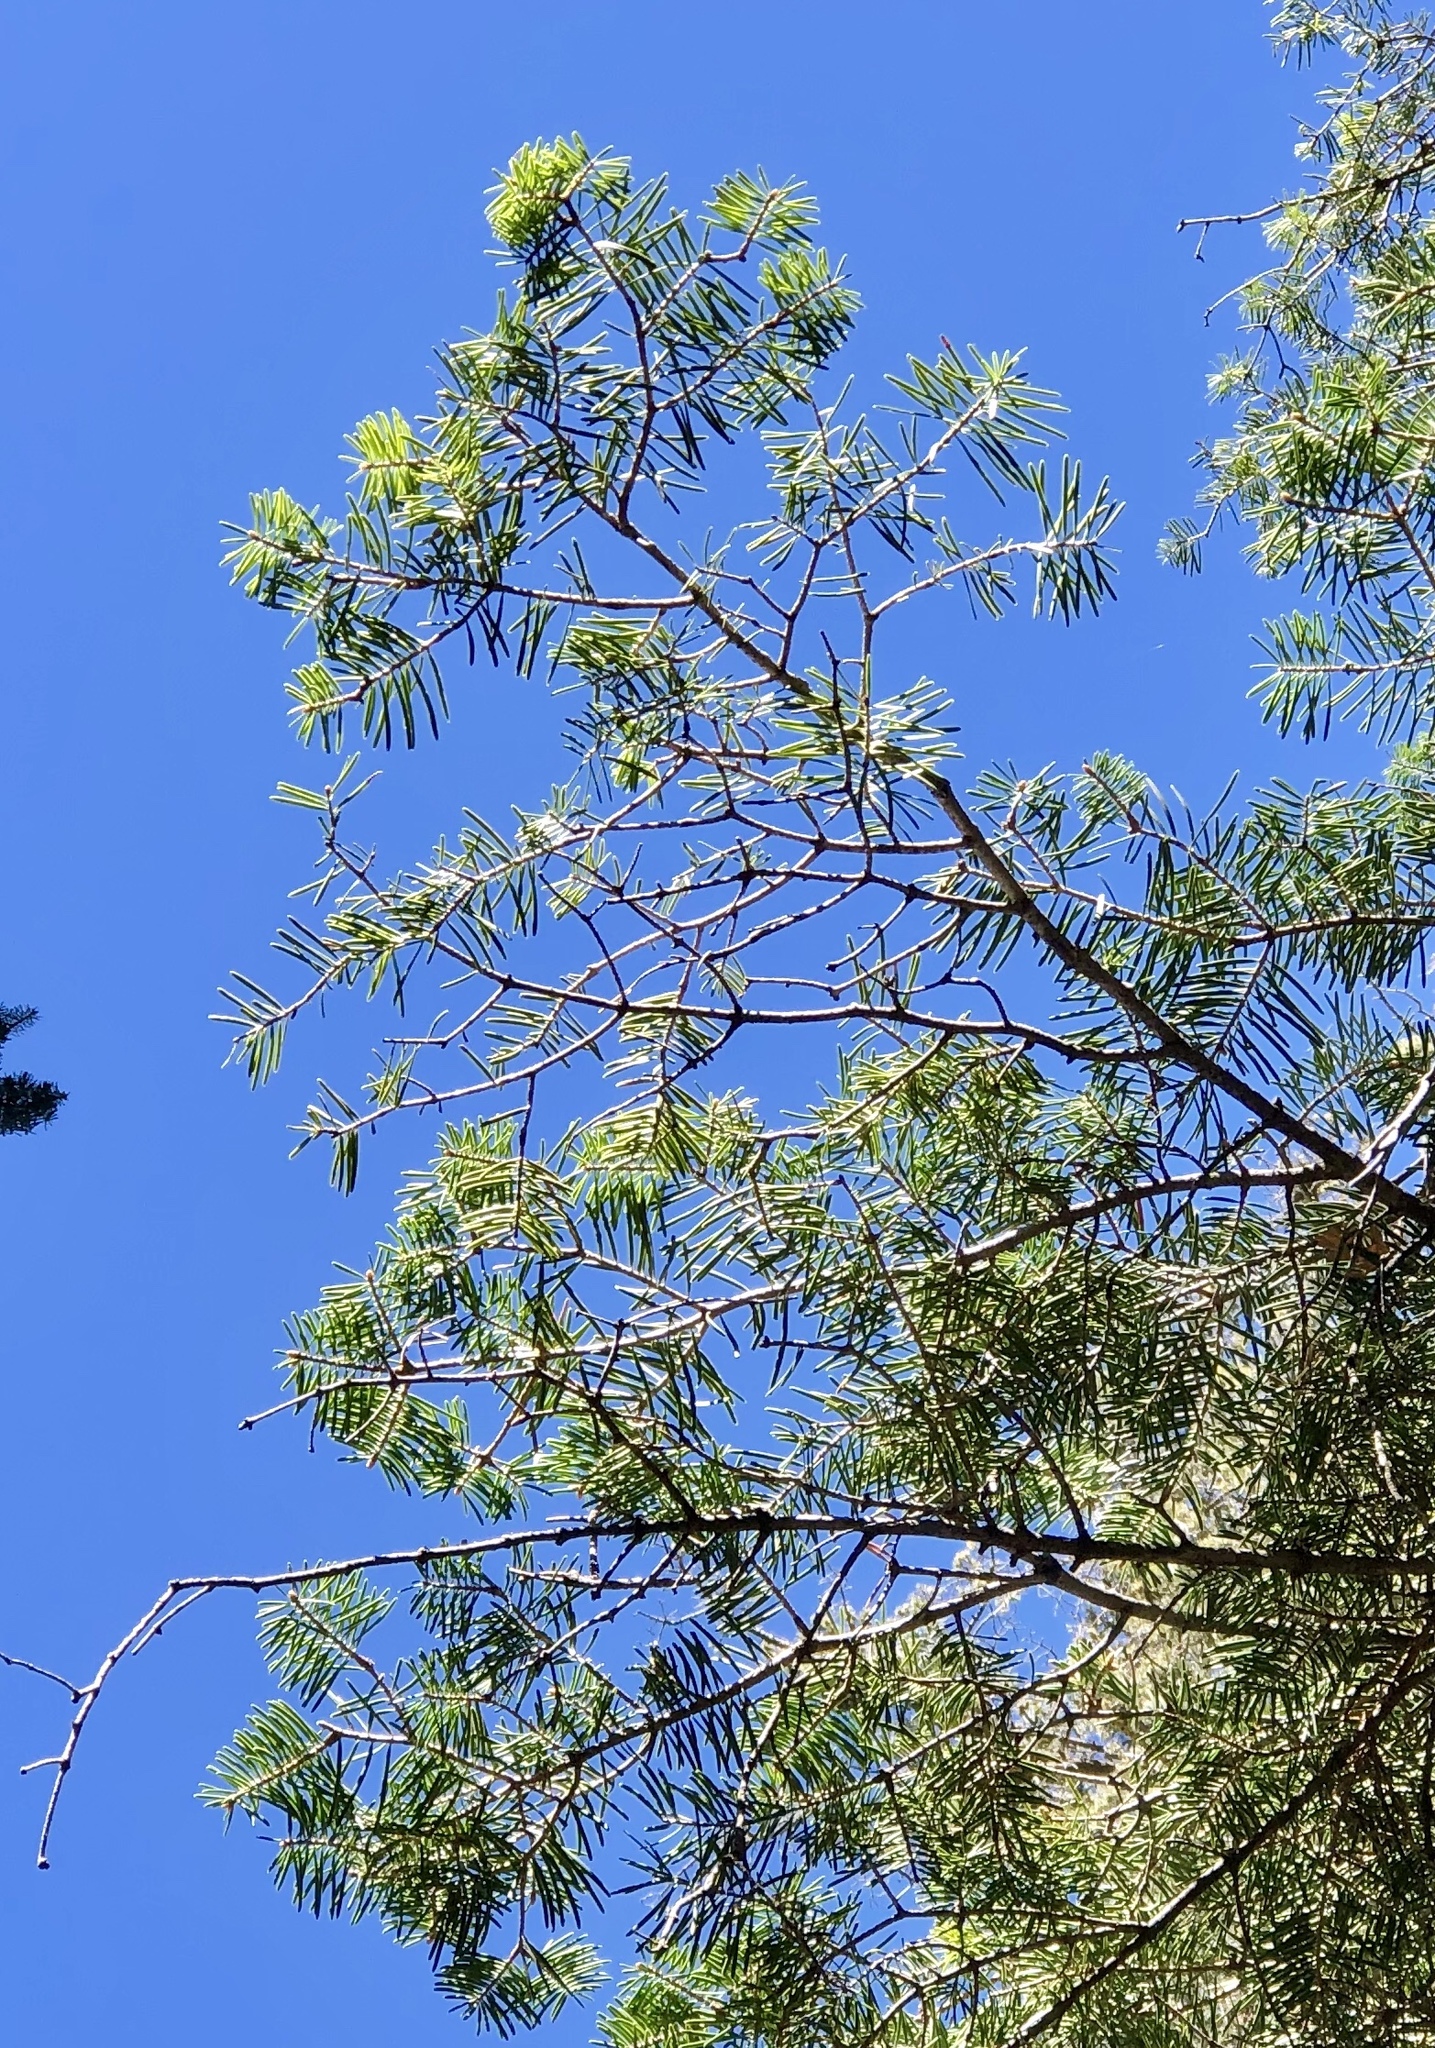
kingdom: Plantae
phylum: Tracheophyta
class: Pinopsida
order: Pinales
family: Pinaceae
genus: Abies
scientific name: Abies concolor
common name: Colorado fir
